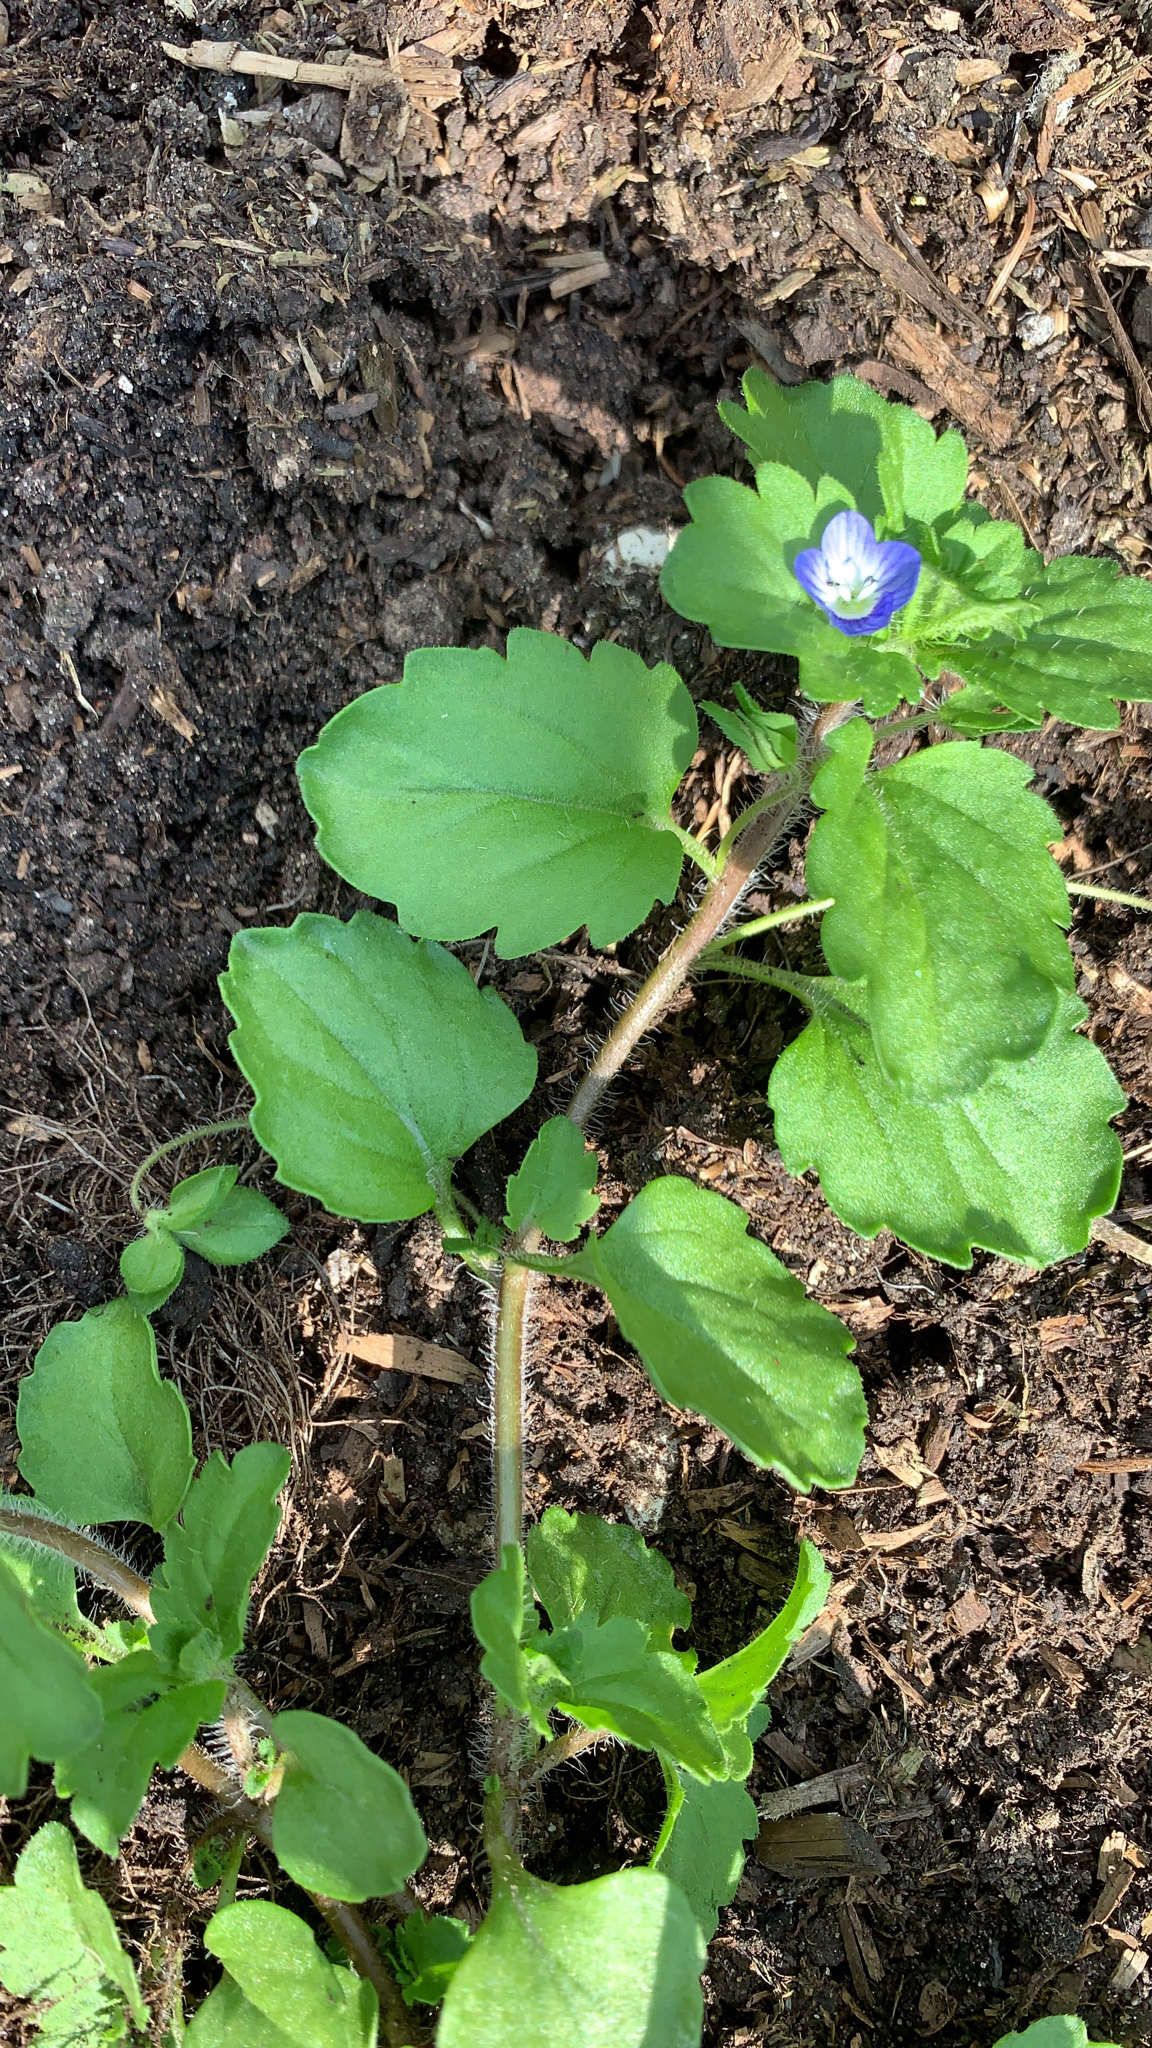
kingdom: Plantae
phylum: Tracheophyta
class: Magnoliopsida
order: Lamiales
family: Plantaginaceae
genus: Veronica
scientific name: Veronica persica
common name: Common field-speedwell
